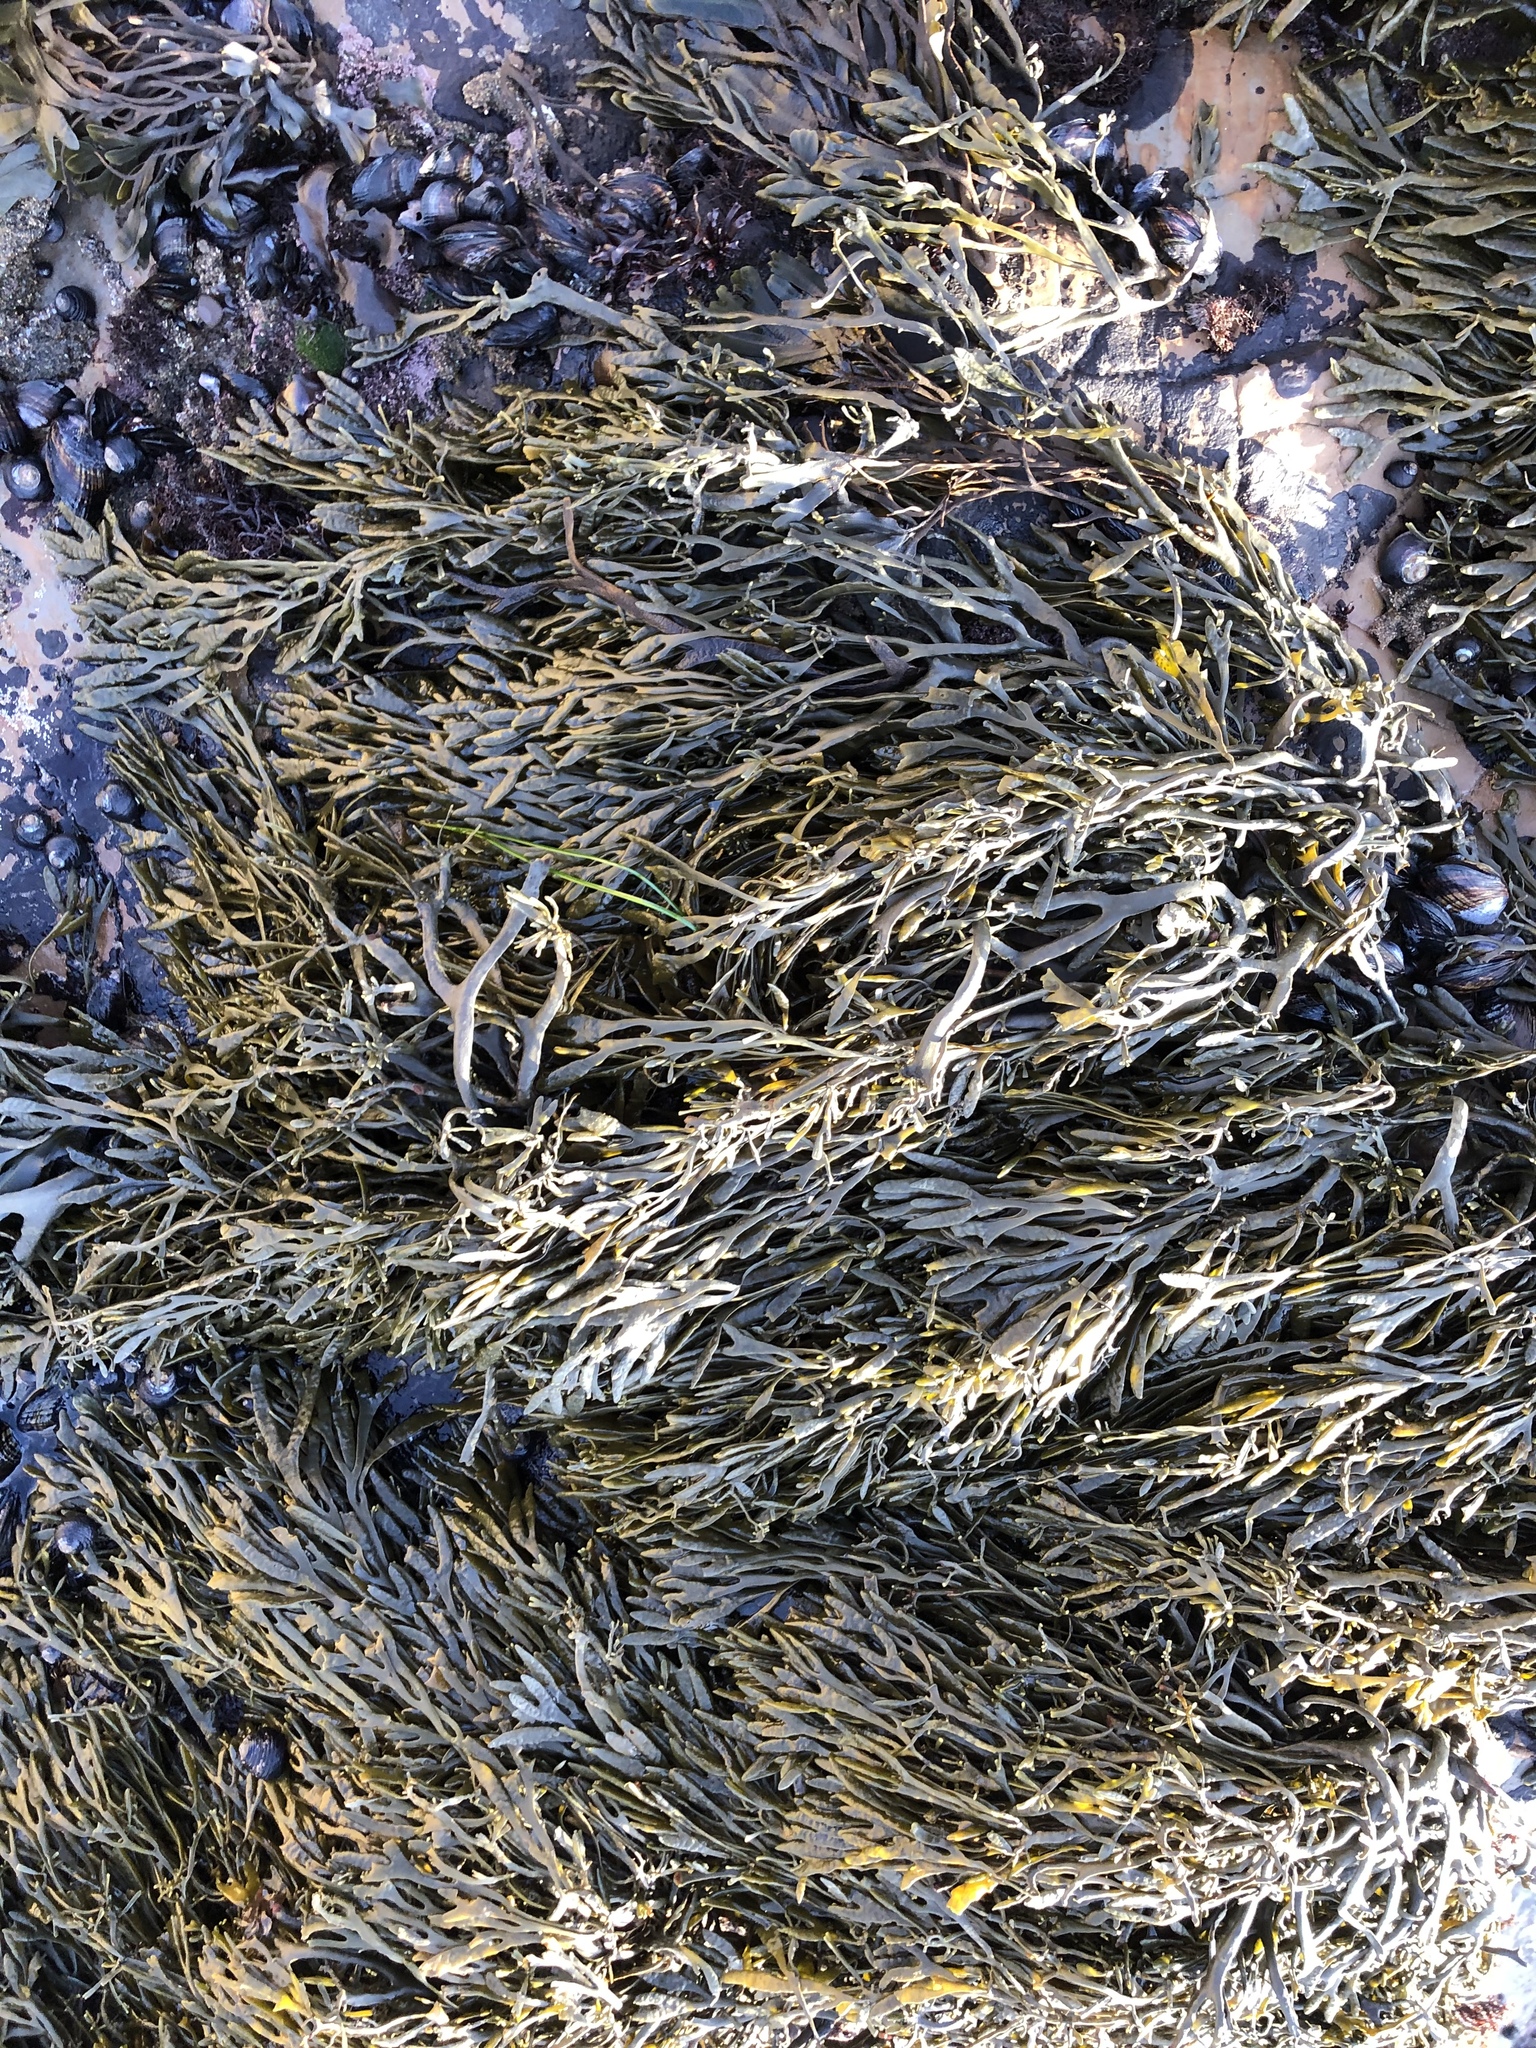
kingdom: Chromista
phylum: Ochrophyta
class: Phaeophyceae
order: Fucales
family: Fucaceae
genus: Silvetia
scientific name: Silvetia
